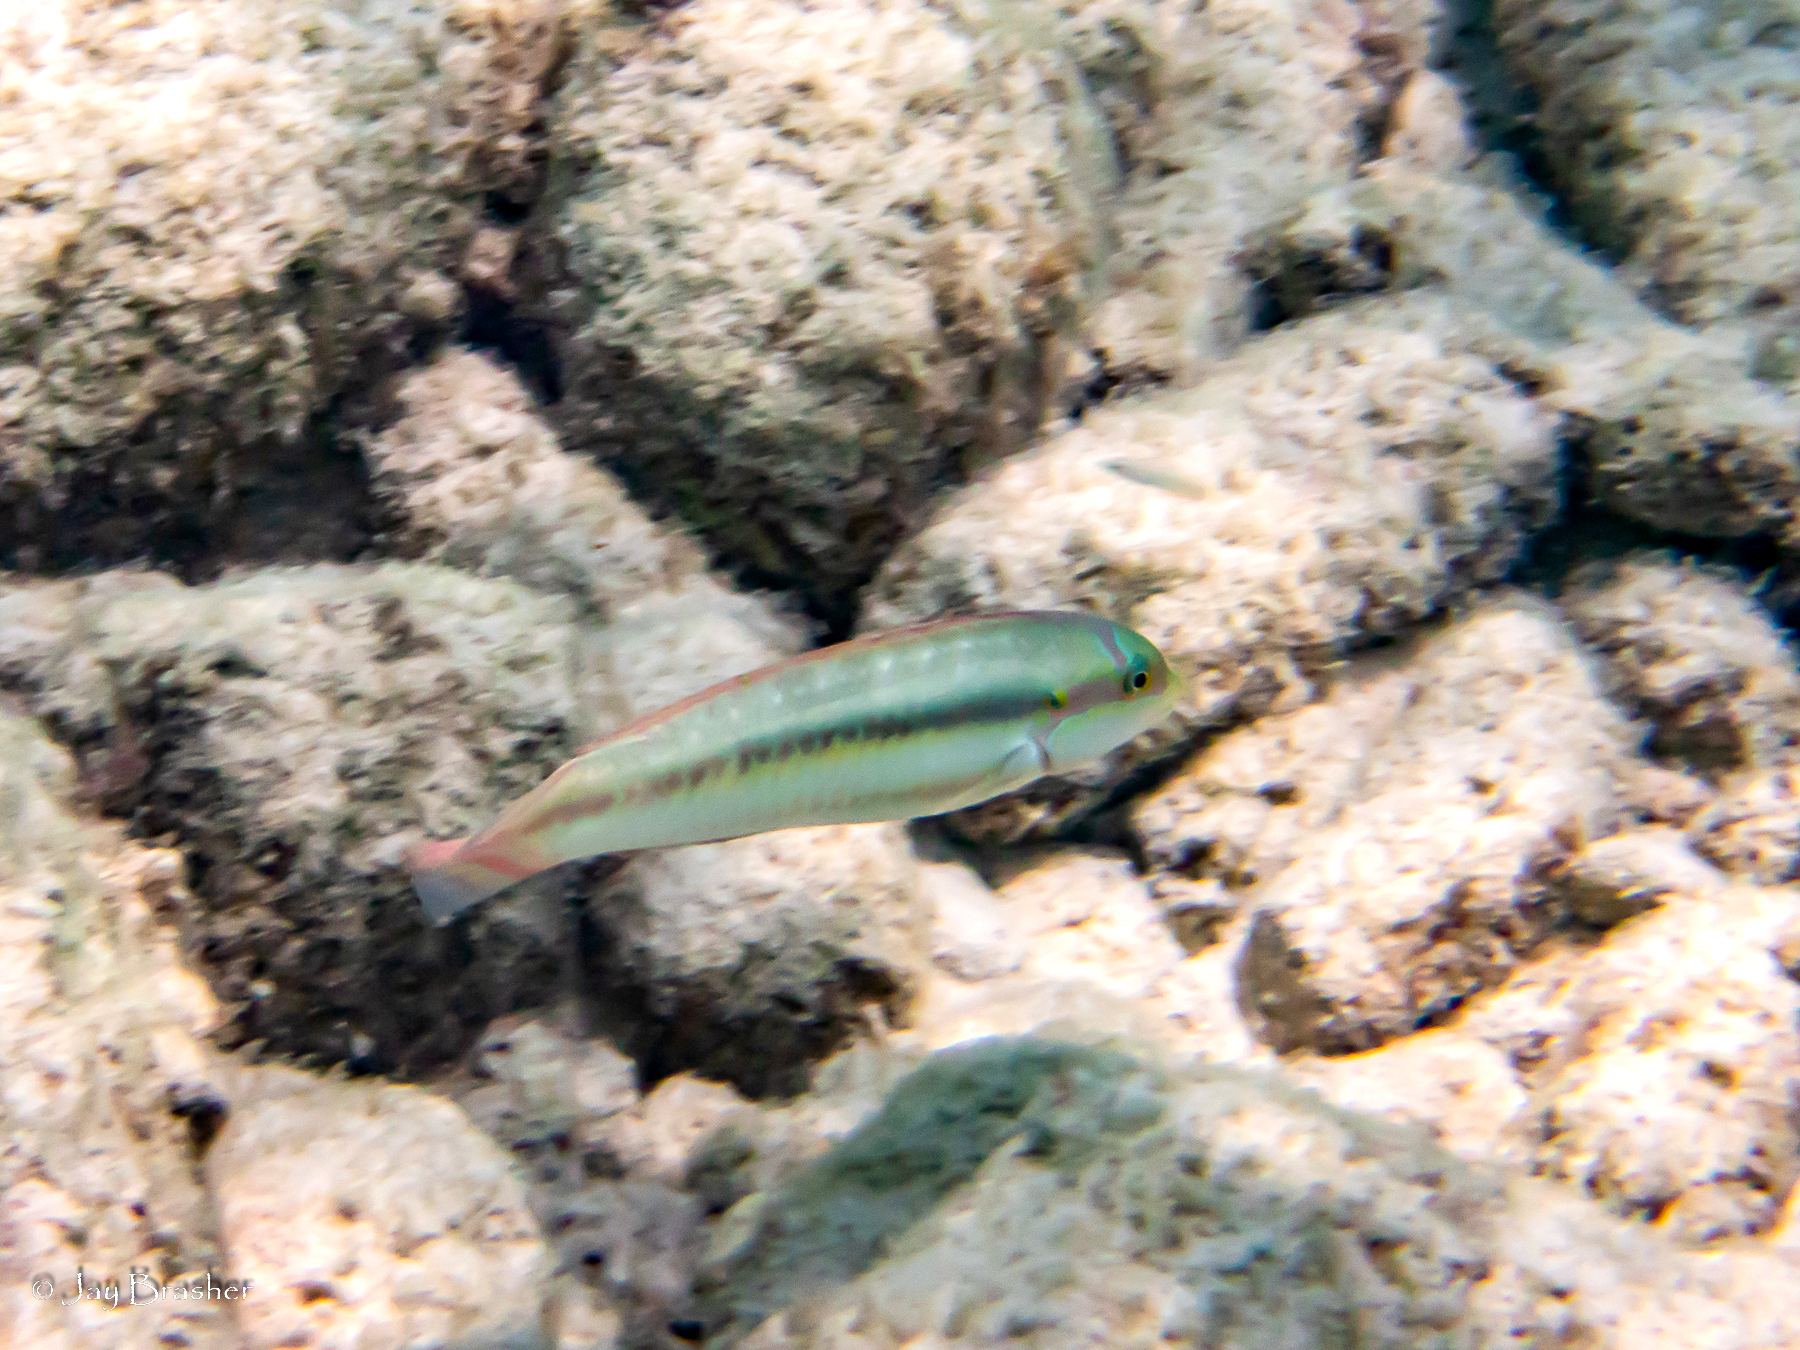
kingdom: Animalia
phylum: Chordata
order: Perciformes
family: Labridae
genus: Halichoeres
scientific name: Halichoeres bivittatus
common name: Slippery dick
